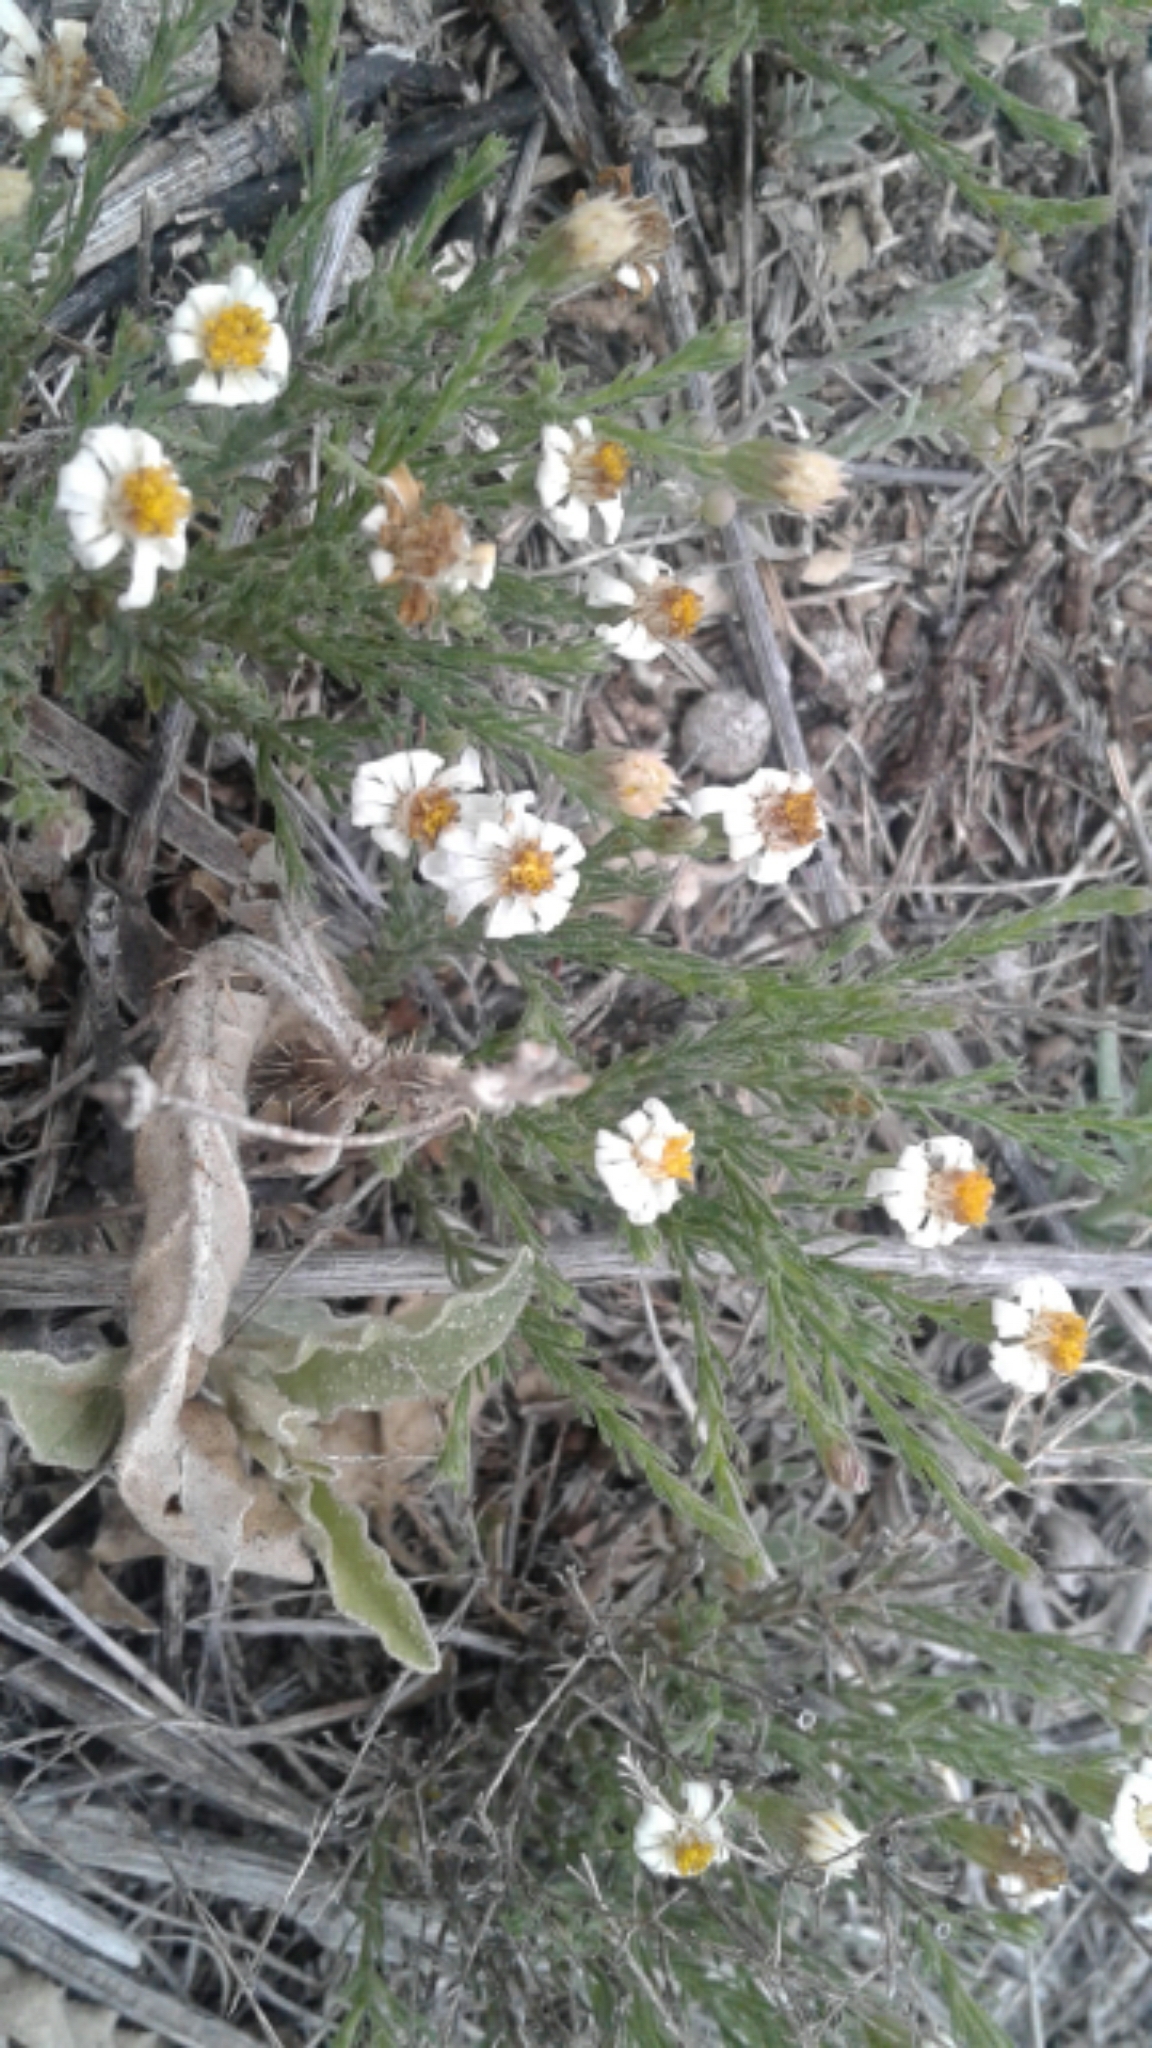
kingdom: Plantae
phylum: Tracheophyta
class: Magnoliopsida
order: Asterales
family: Asteraceae
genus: Chaetopappa
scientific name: Chaetopappa ericoides
